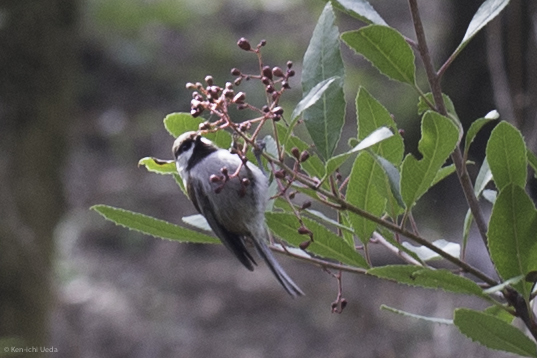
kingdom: Animalia
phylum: Chordata
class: Aves
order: Passeriformes
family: Paridae
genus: Poecile
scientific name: Poecile rufescens
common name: Chestnut-backed chickadee
